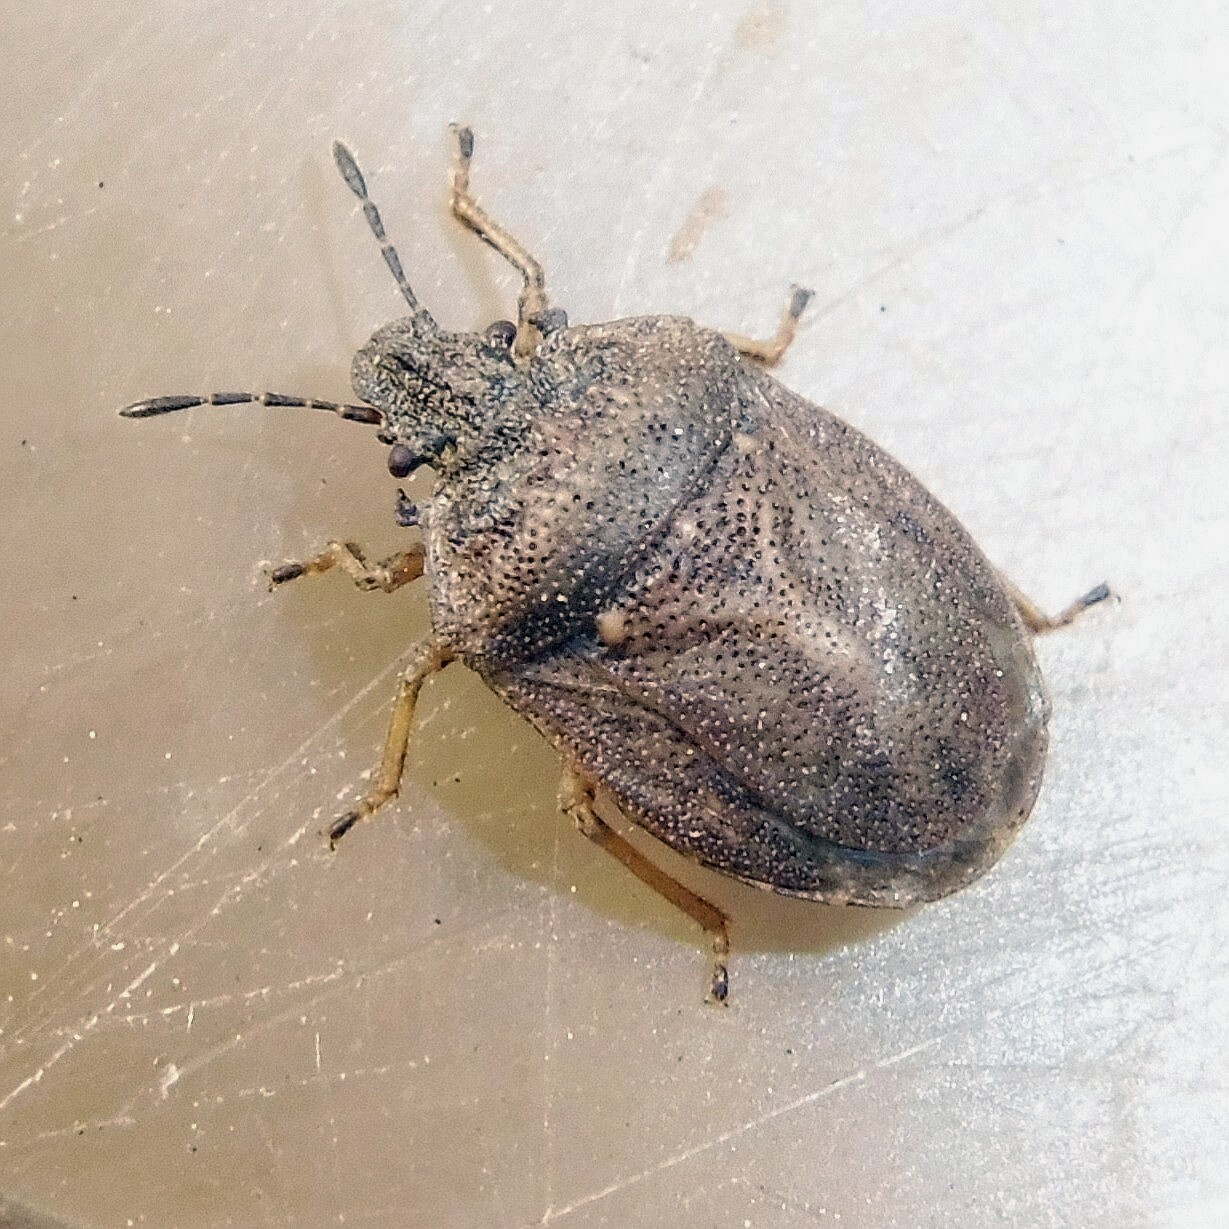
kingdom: Animalia
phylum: Arthropoda
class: Insecta
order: Hemiptera
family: Pentatomidae
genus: Podops
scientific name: Podops inunctus
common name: Turtle bug
